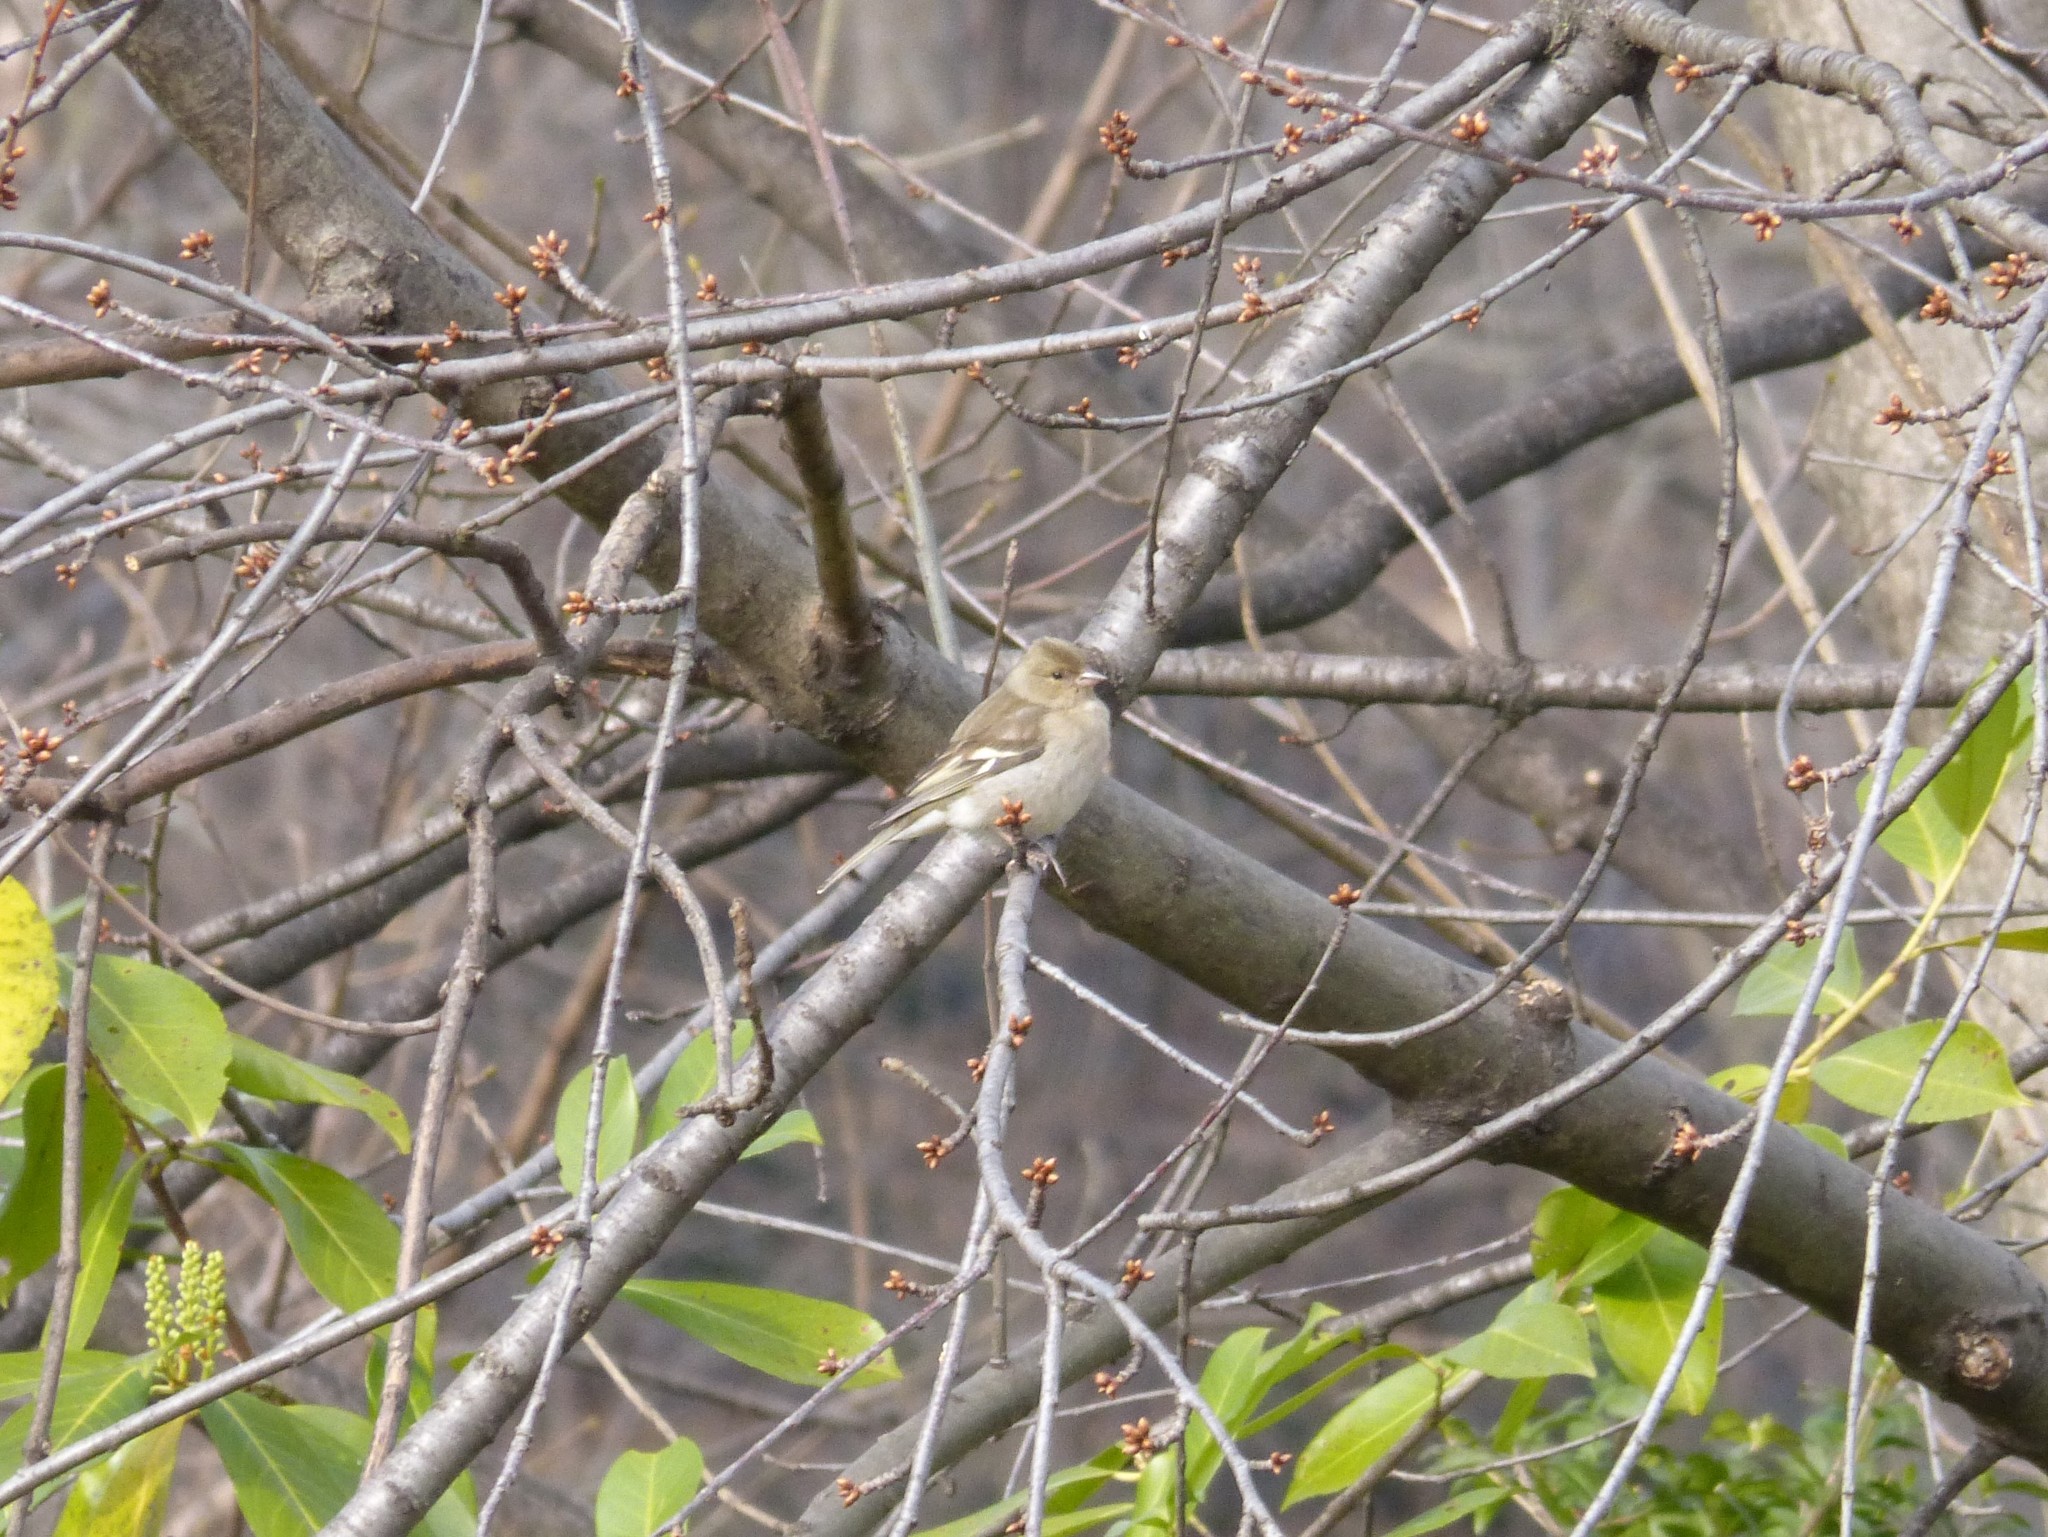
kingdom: Animalia
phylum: Chordata
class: Aves
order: Passeriformes
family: Fringillidae
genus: Fringilla
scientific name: Fringilla coelebs
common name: Common chaffinch
